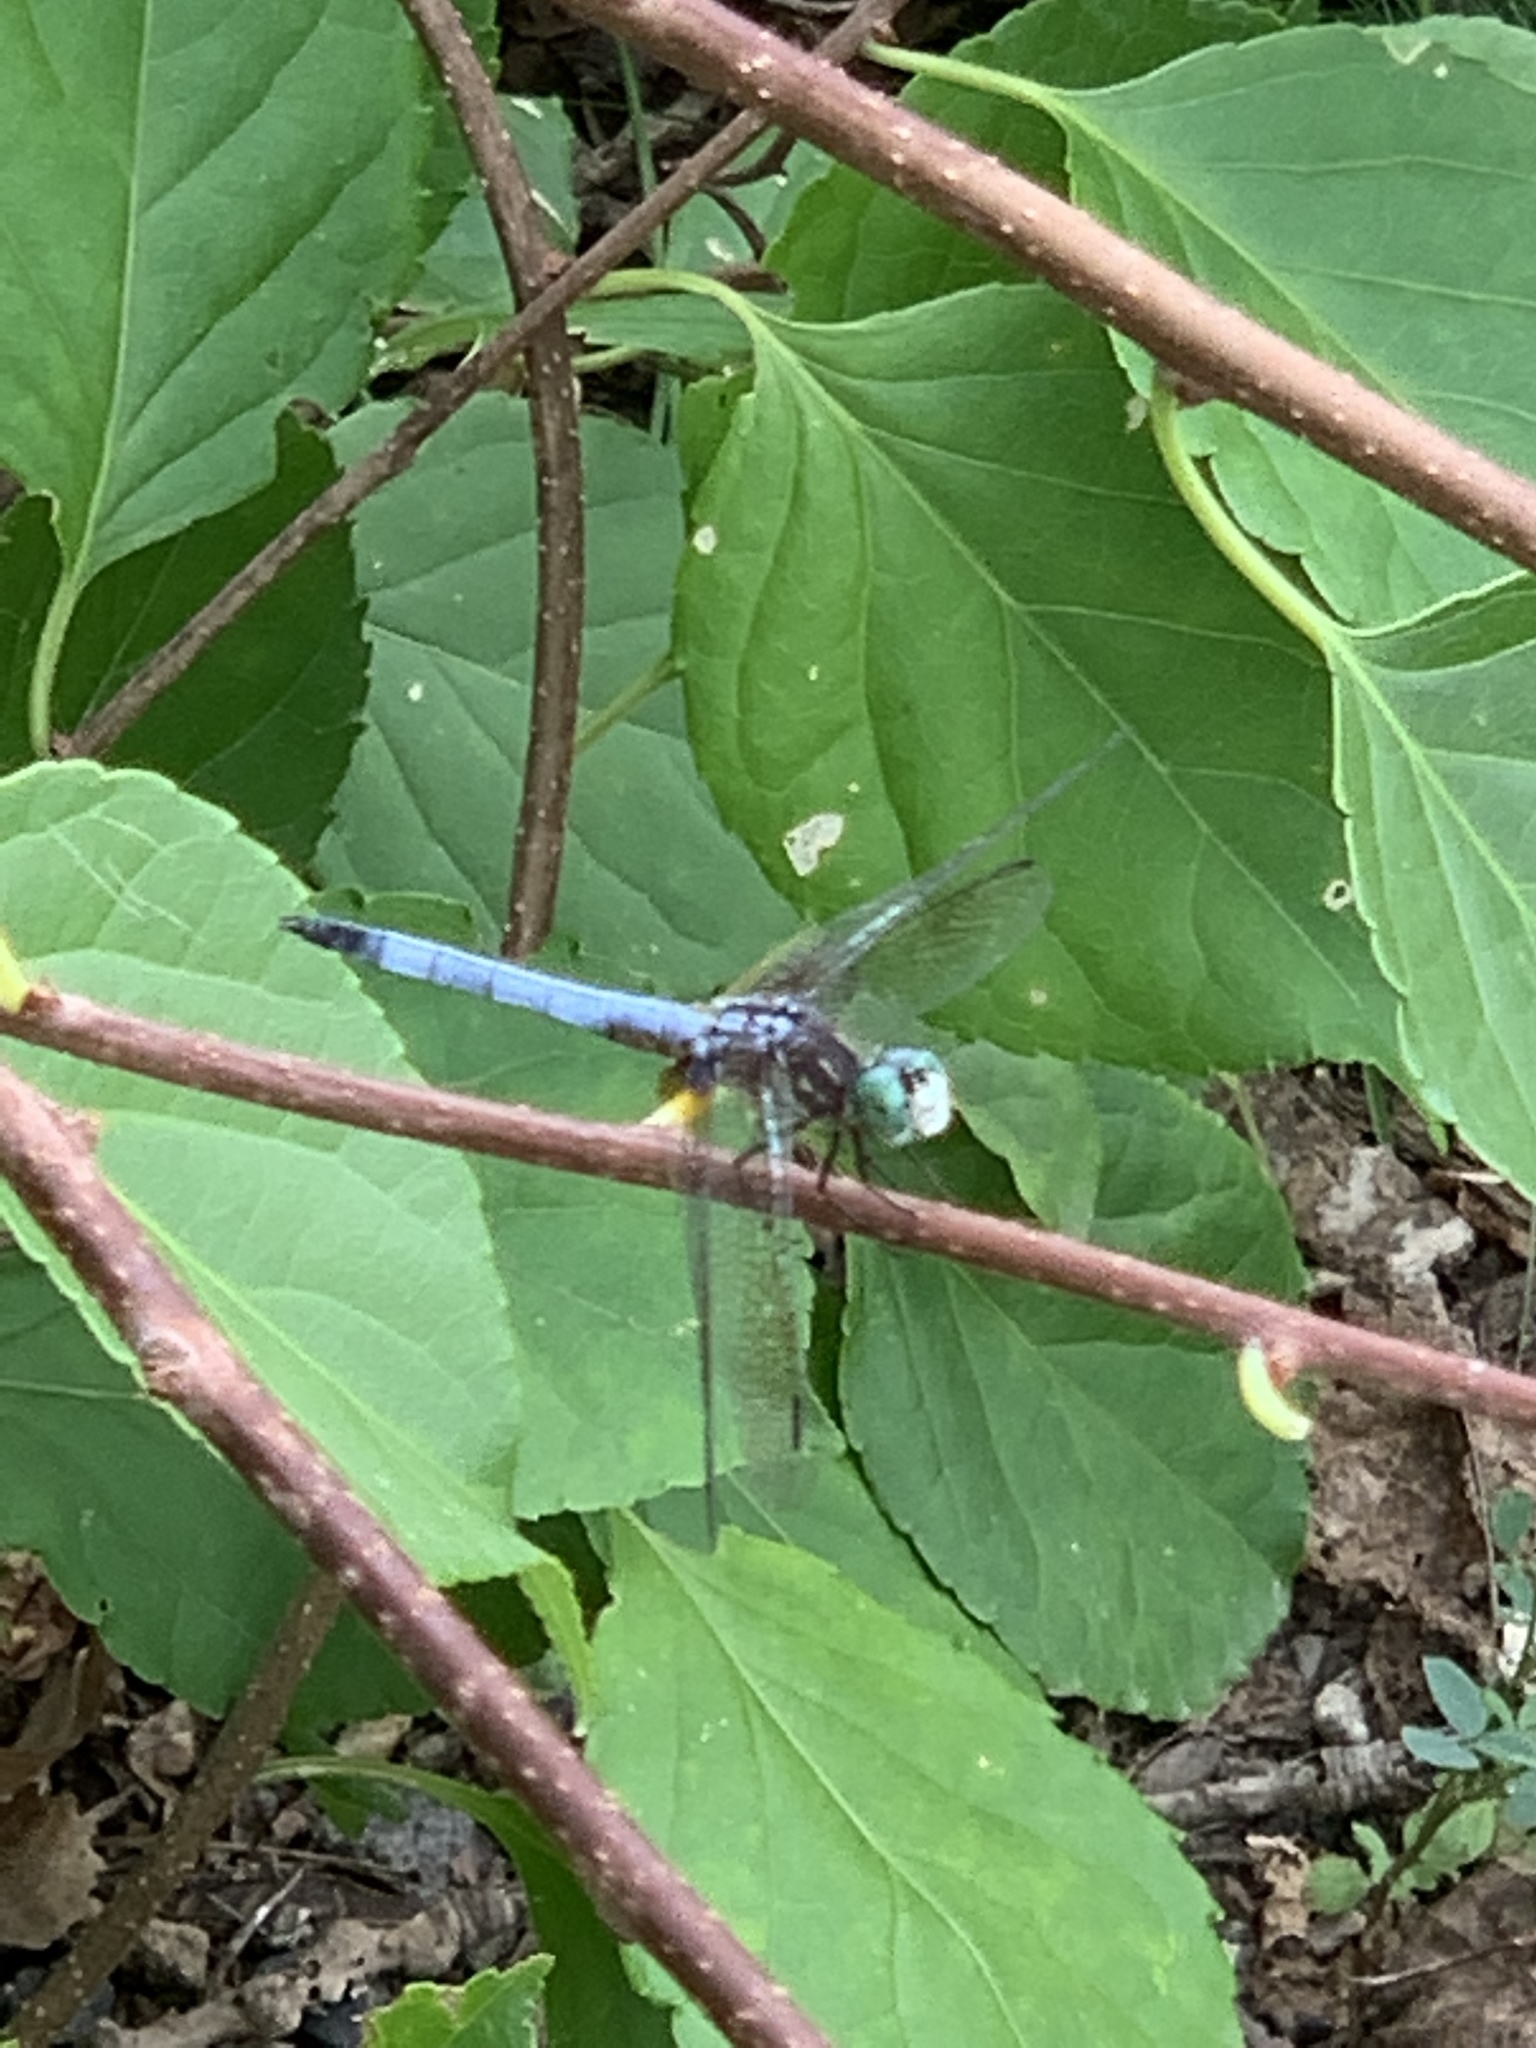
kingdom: Animalia
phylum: Arthropoda
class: Insecta
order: Odonata
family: Libellulidae
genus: Pachydiplax
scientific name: Pachydiplax longipennis
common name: Blue dasher
